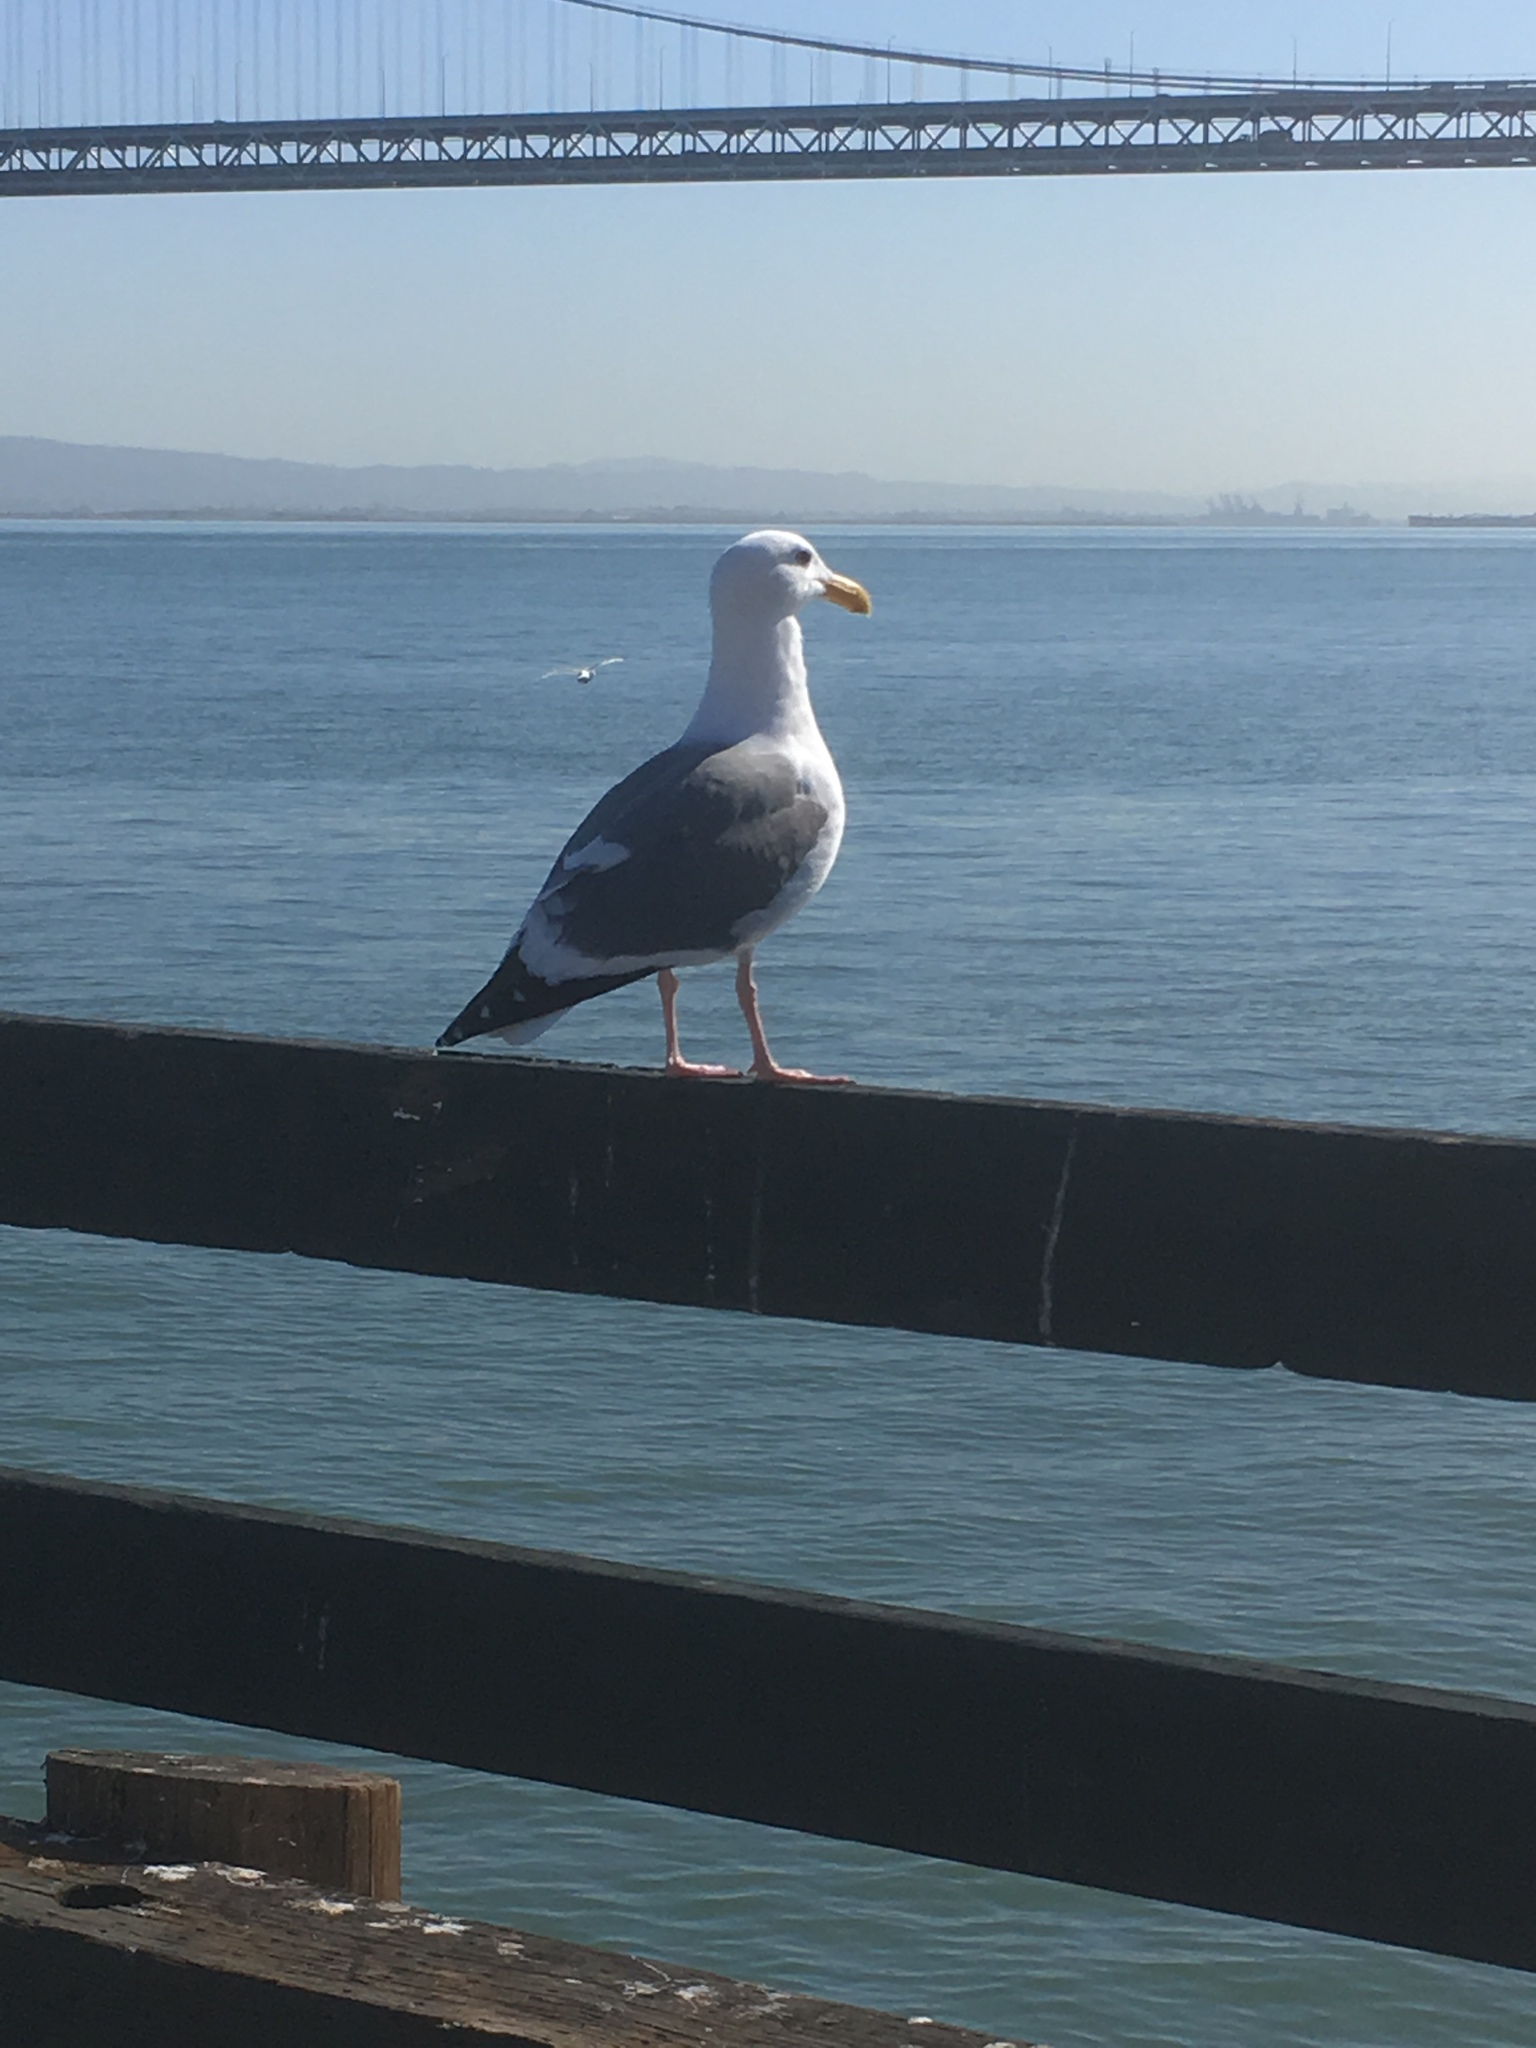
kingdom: Animalia
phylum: Chordata
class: Aves
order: Charadriiformes
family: Laridae
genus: Larus
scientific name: Larus occidentalis
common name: Western gull
